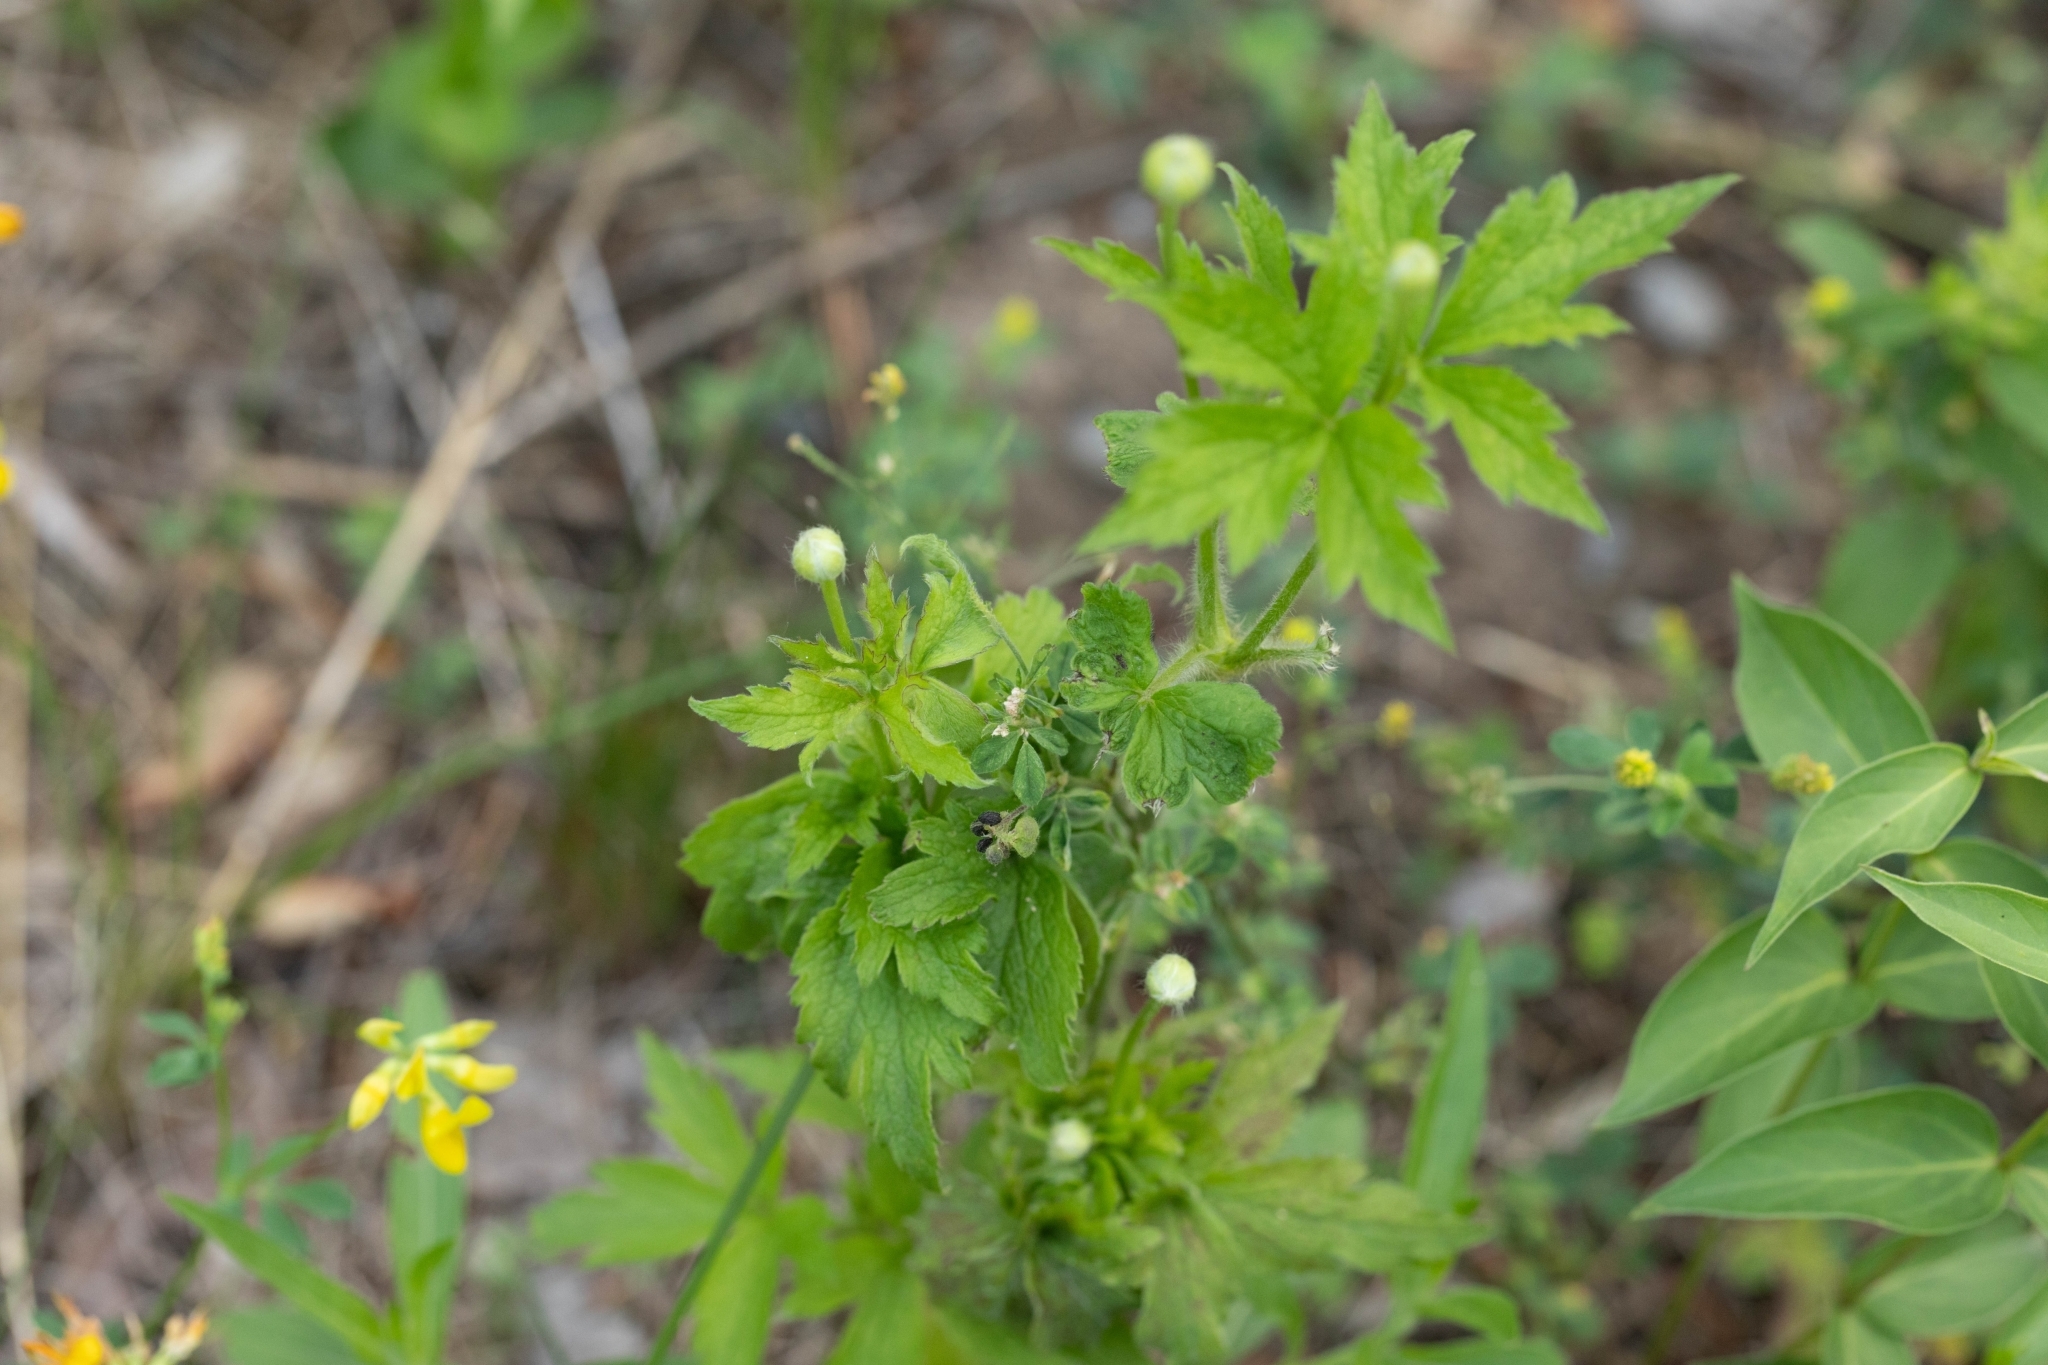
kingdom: Plantae
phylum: Tracheophyta
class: Magnoliopsida
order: Ranunculales
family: Ranunculaceae
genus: Anemone
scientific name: Anemone virginiana
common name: Tall anemone
